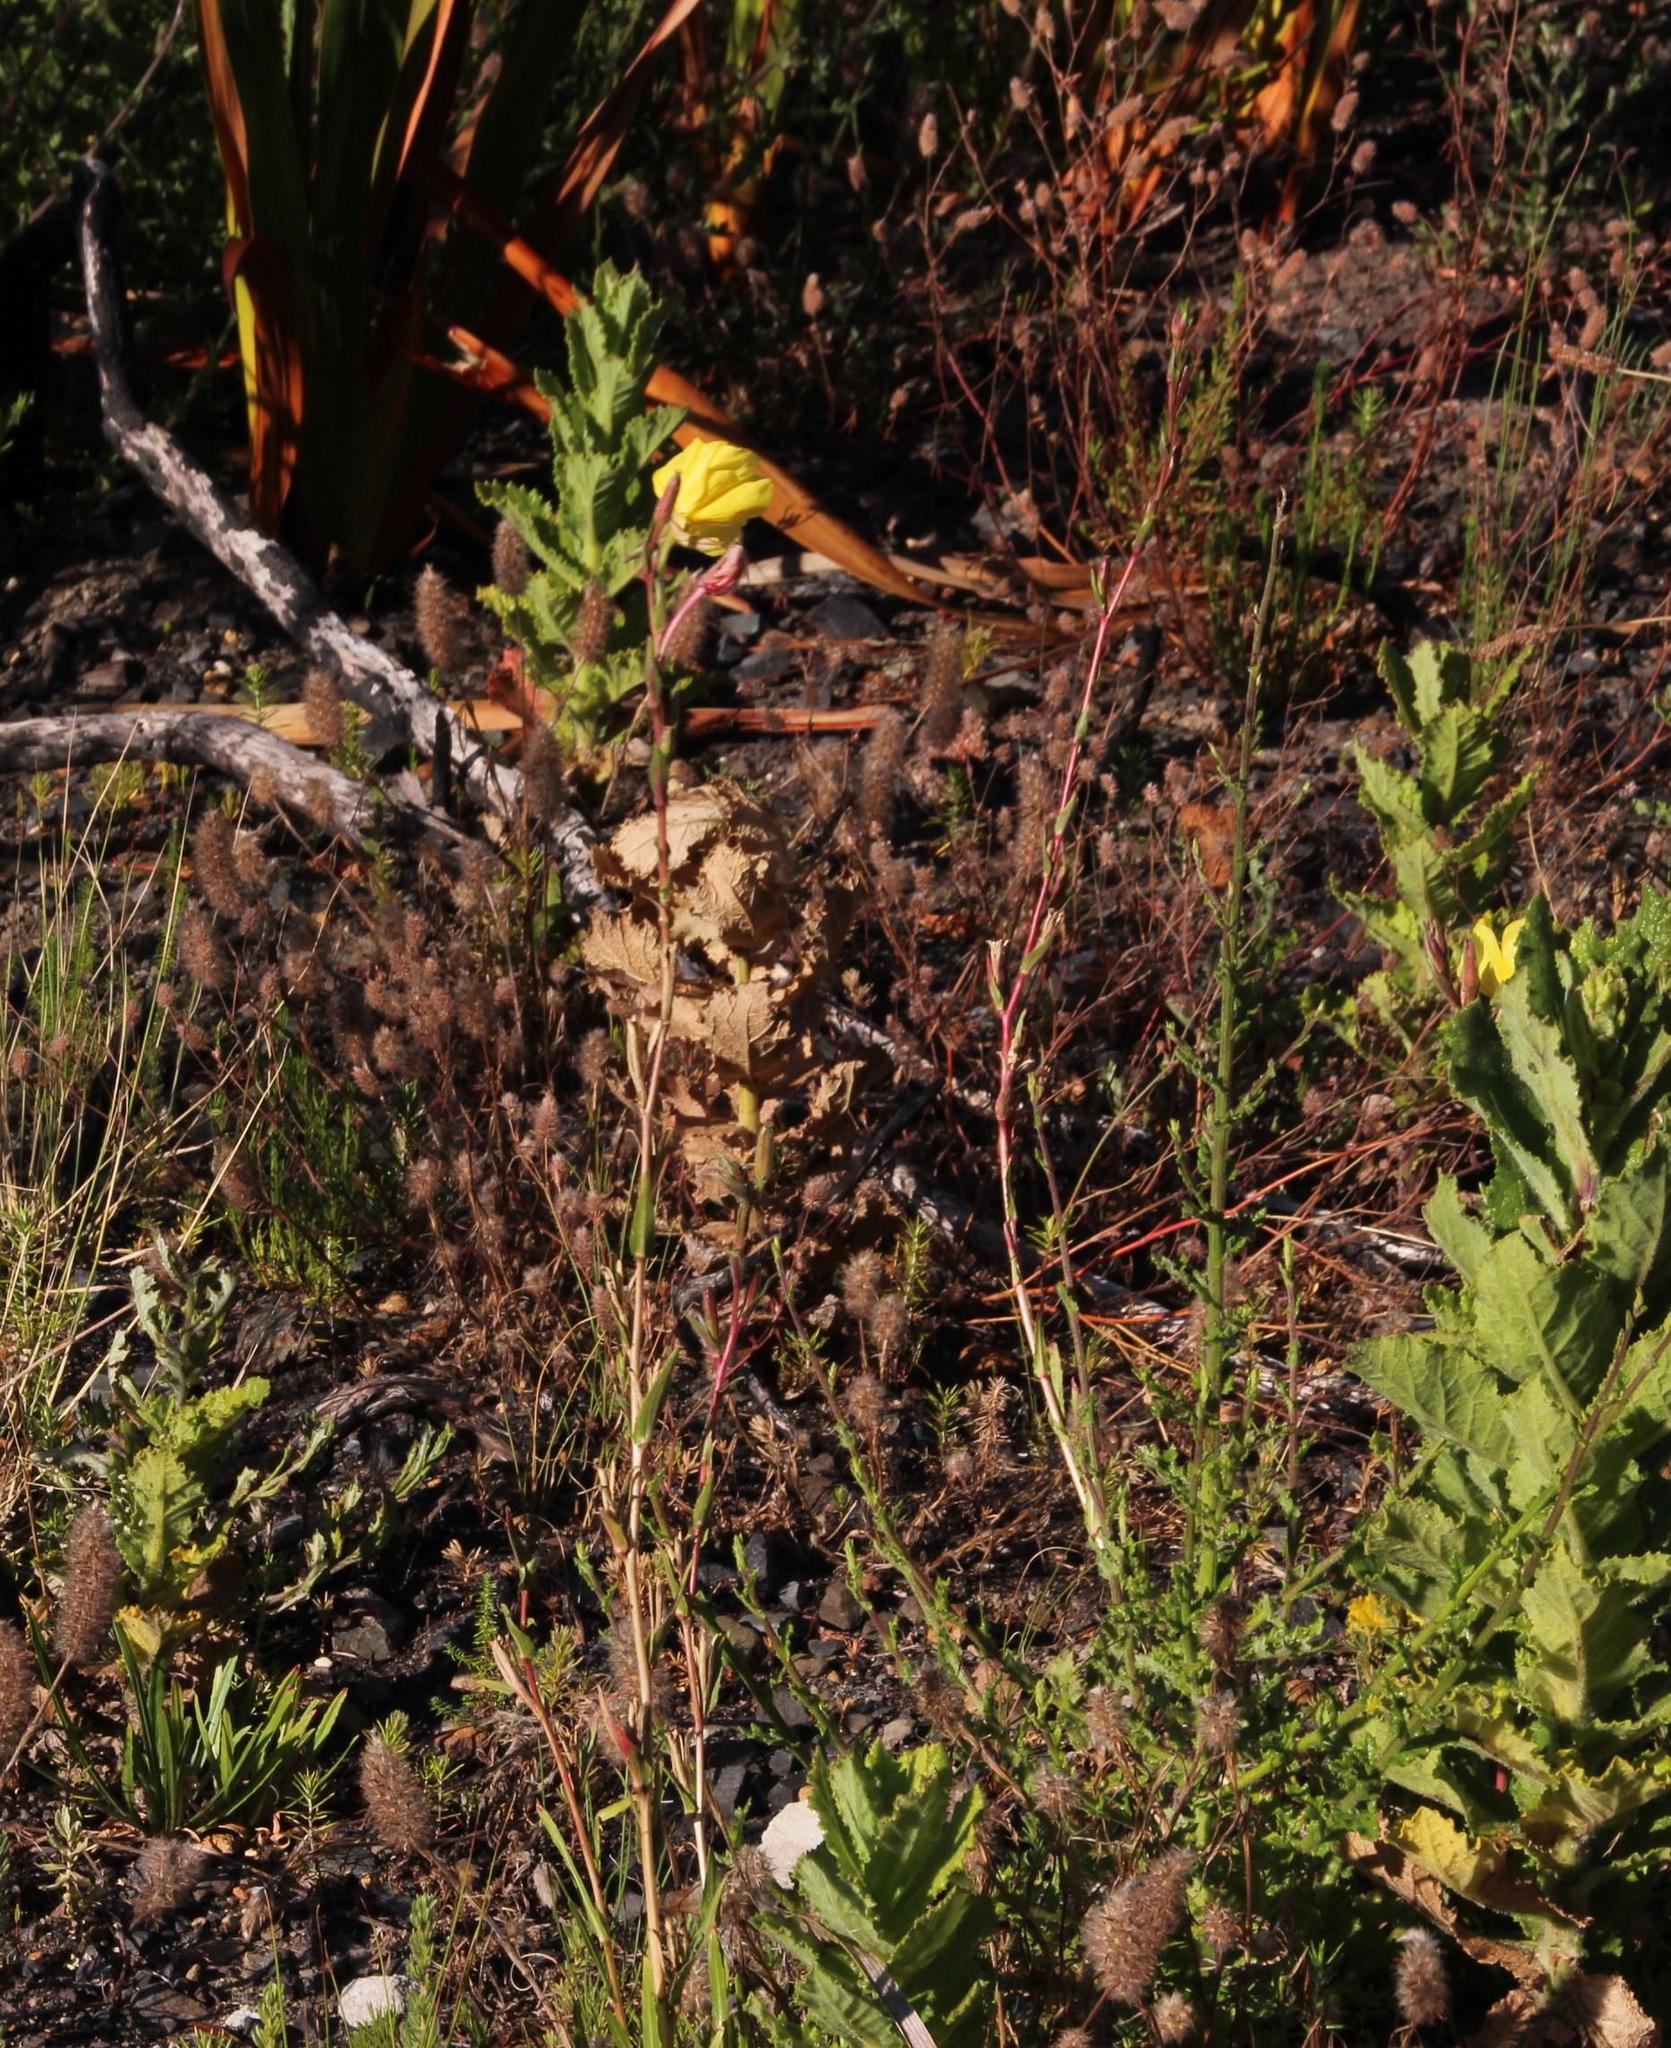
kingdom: Plantae
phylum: Tracheophyta
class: Magnoliopsida
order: Myrtales
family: Onagraceae
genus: Oenothera
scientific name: Oenothera stricta
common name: Fragrant evening-primrose
